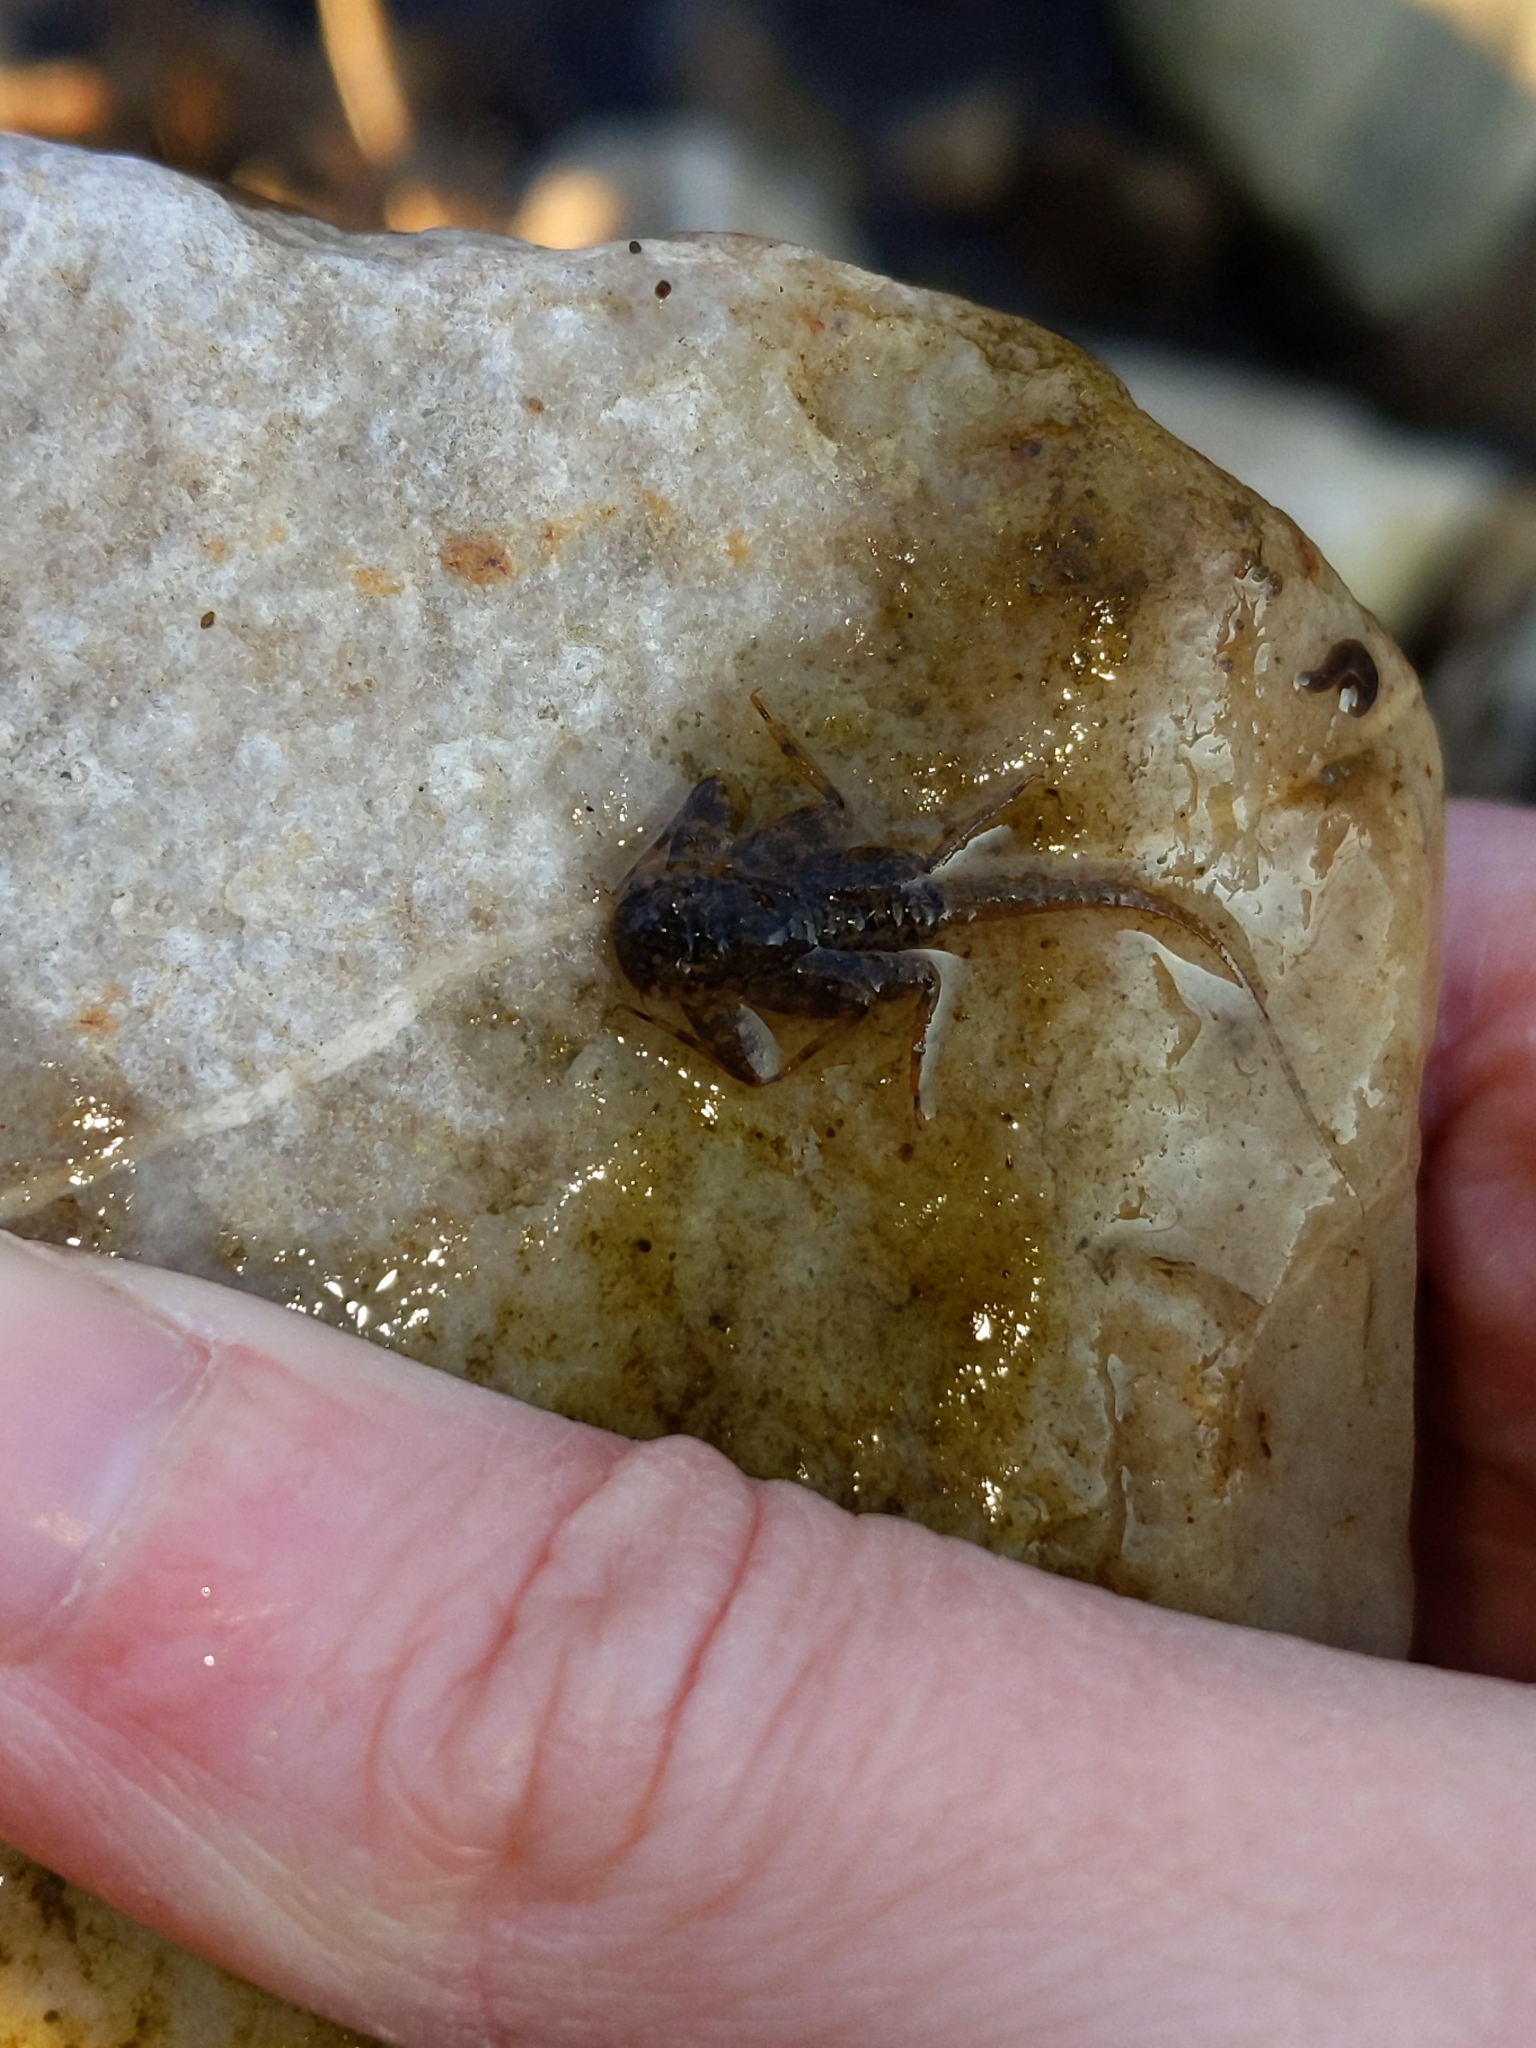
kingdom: Animalia
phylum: Arthropoda
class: Insecta
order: Ephemeroptera
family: Heptageniidae
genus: Maccaffertium
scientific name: Maccaffertium
